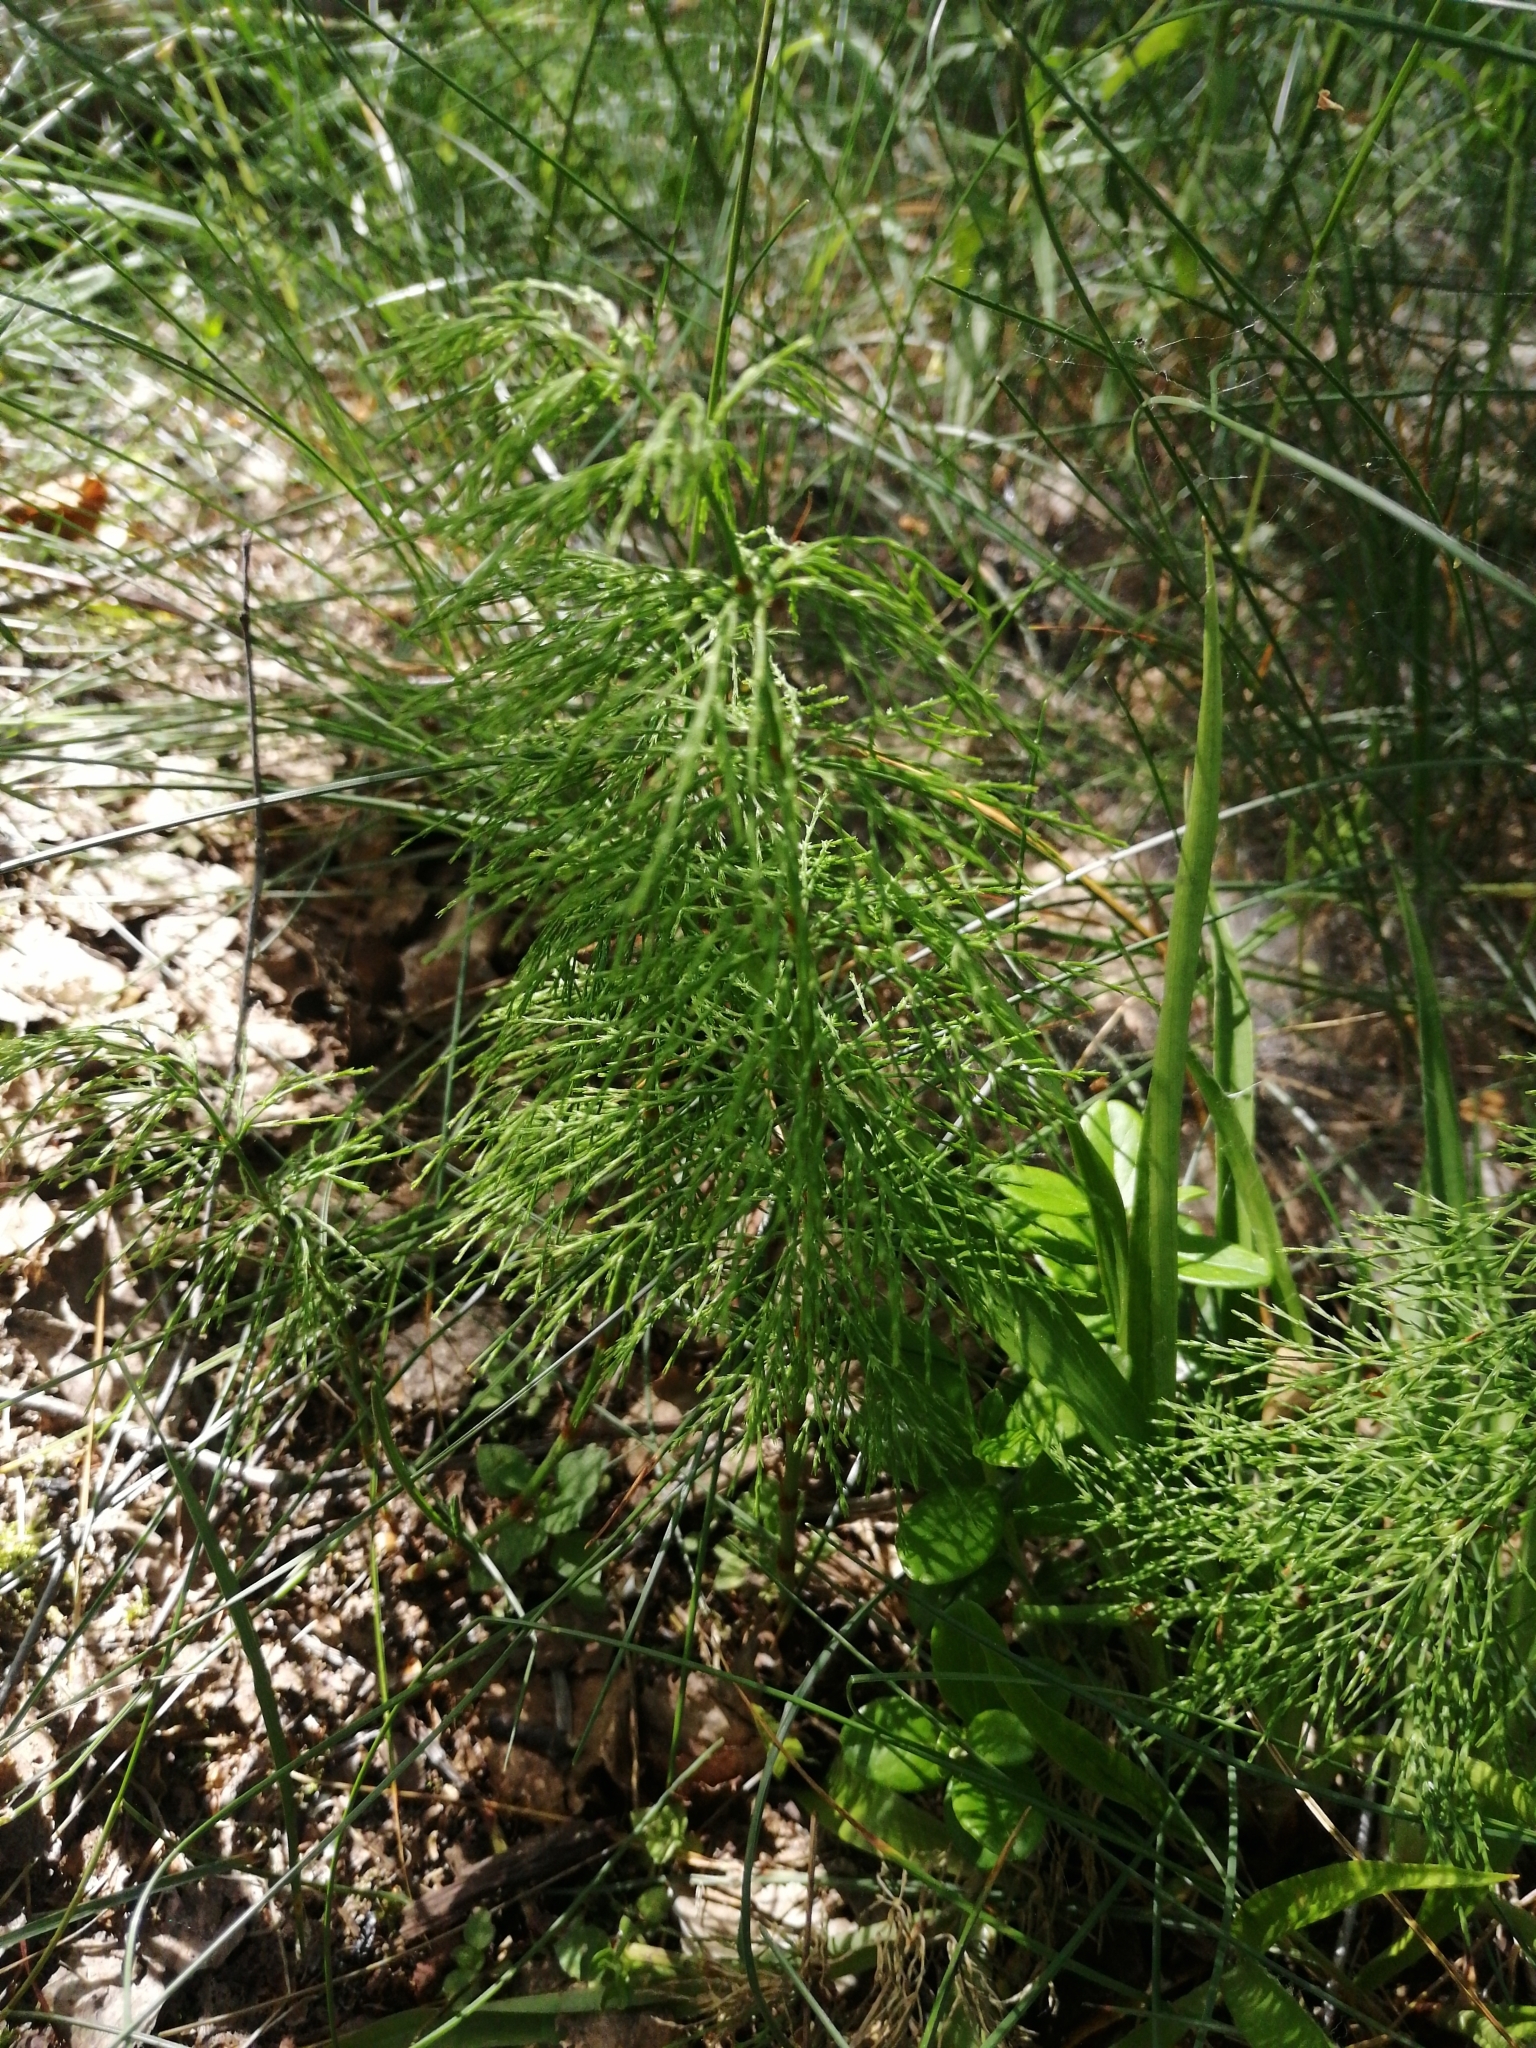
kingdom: Plantae
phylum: Tracheophyta
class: Polypodiopsida
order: Equisetales
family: Equisetaceae
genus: Equisetum
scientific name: Equisetum sylvaticum
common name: Wood horsetail
